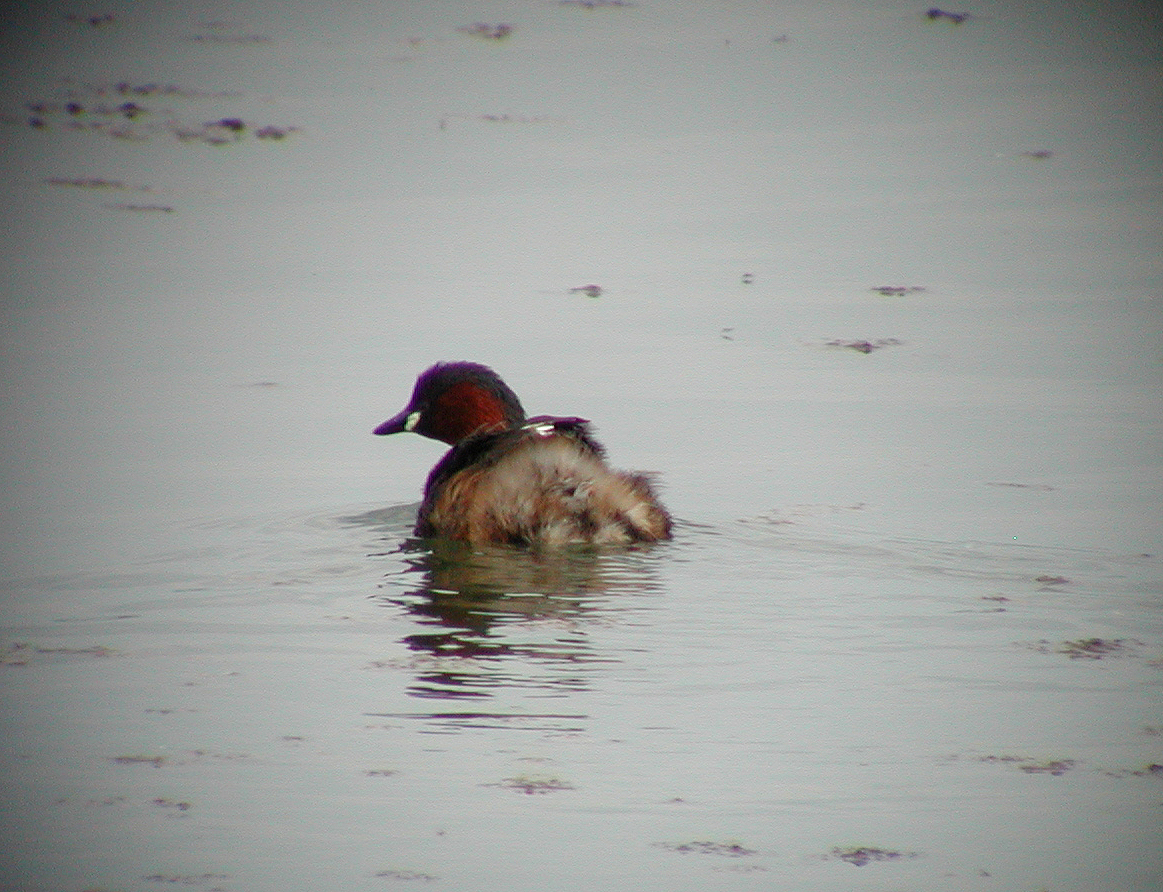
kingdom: Animalia
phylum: Chordata
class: Aves
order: Podicipediformes
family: Podicipedidae
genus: Tachybaptus
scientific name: Tachybaptus ruficollis
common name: Little grebe
